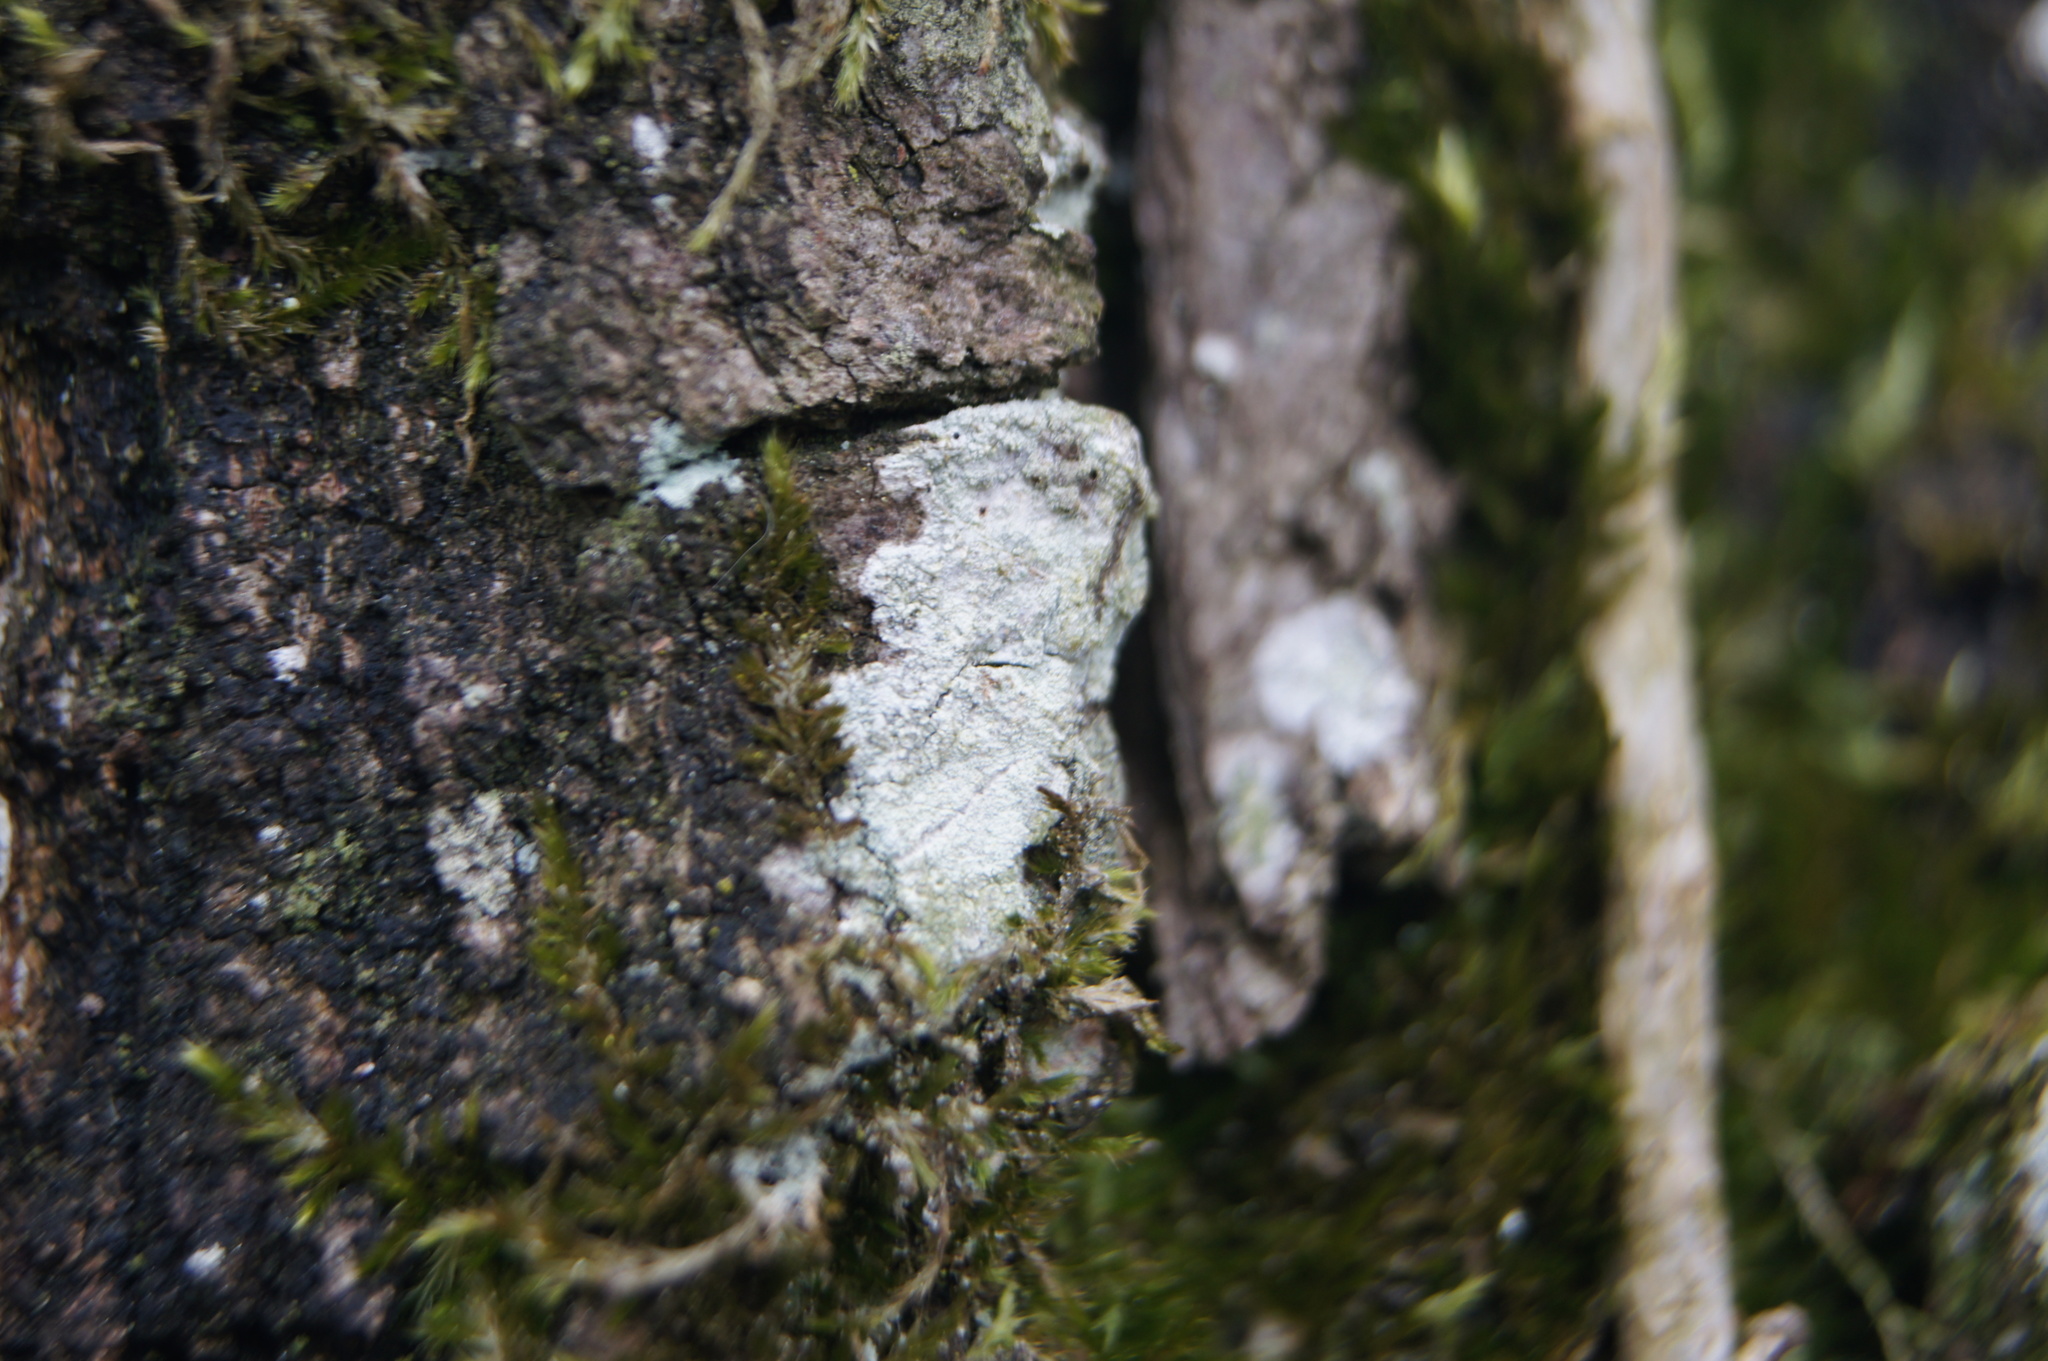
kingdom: Fungi
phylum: Ascomycota
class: Lecanoromycetes
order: Ostropales
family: Phlyctidaceae
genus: Phlyctis
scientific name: Phlyctis argena
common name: Whitewash lichen
